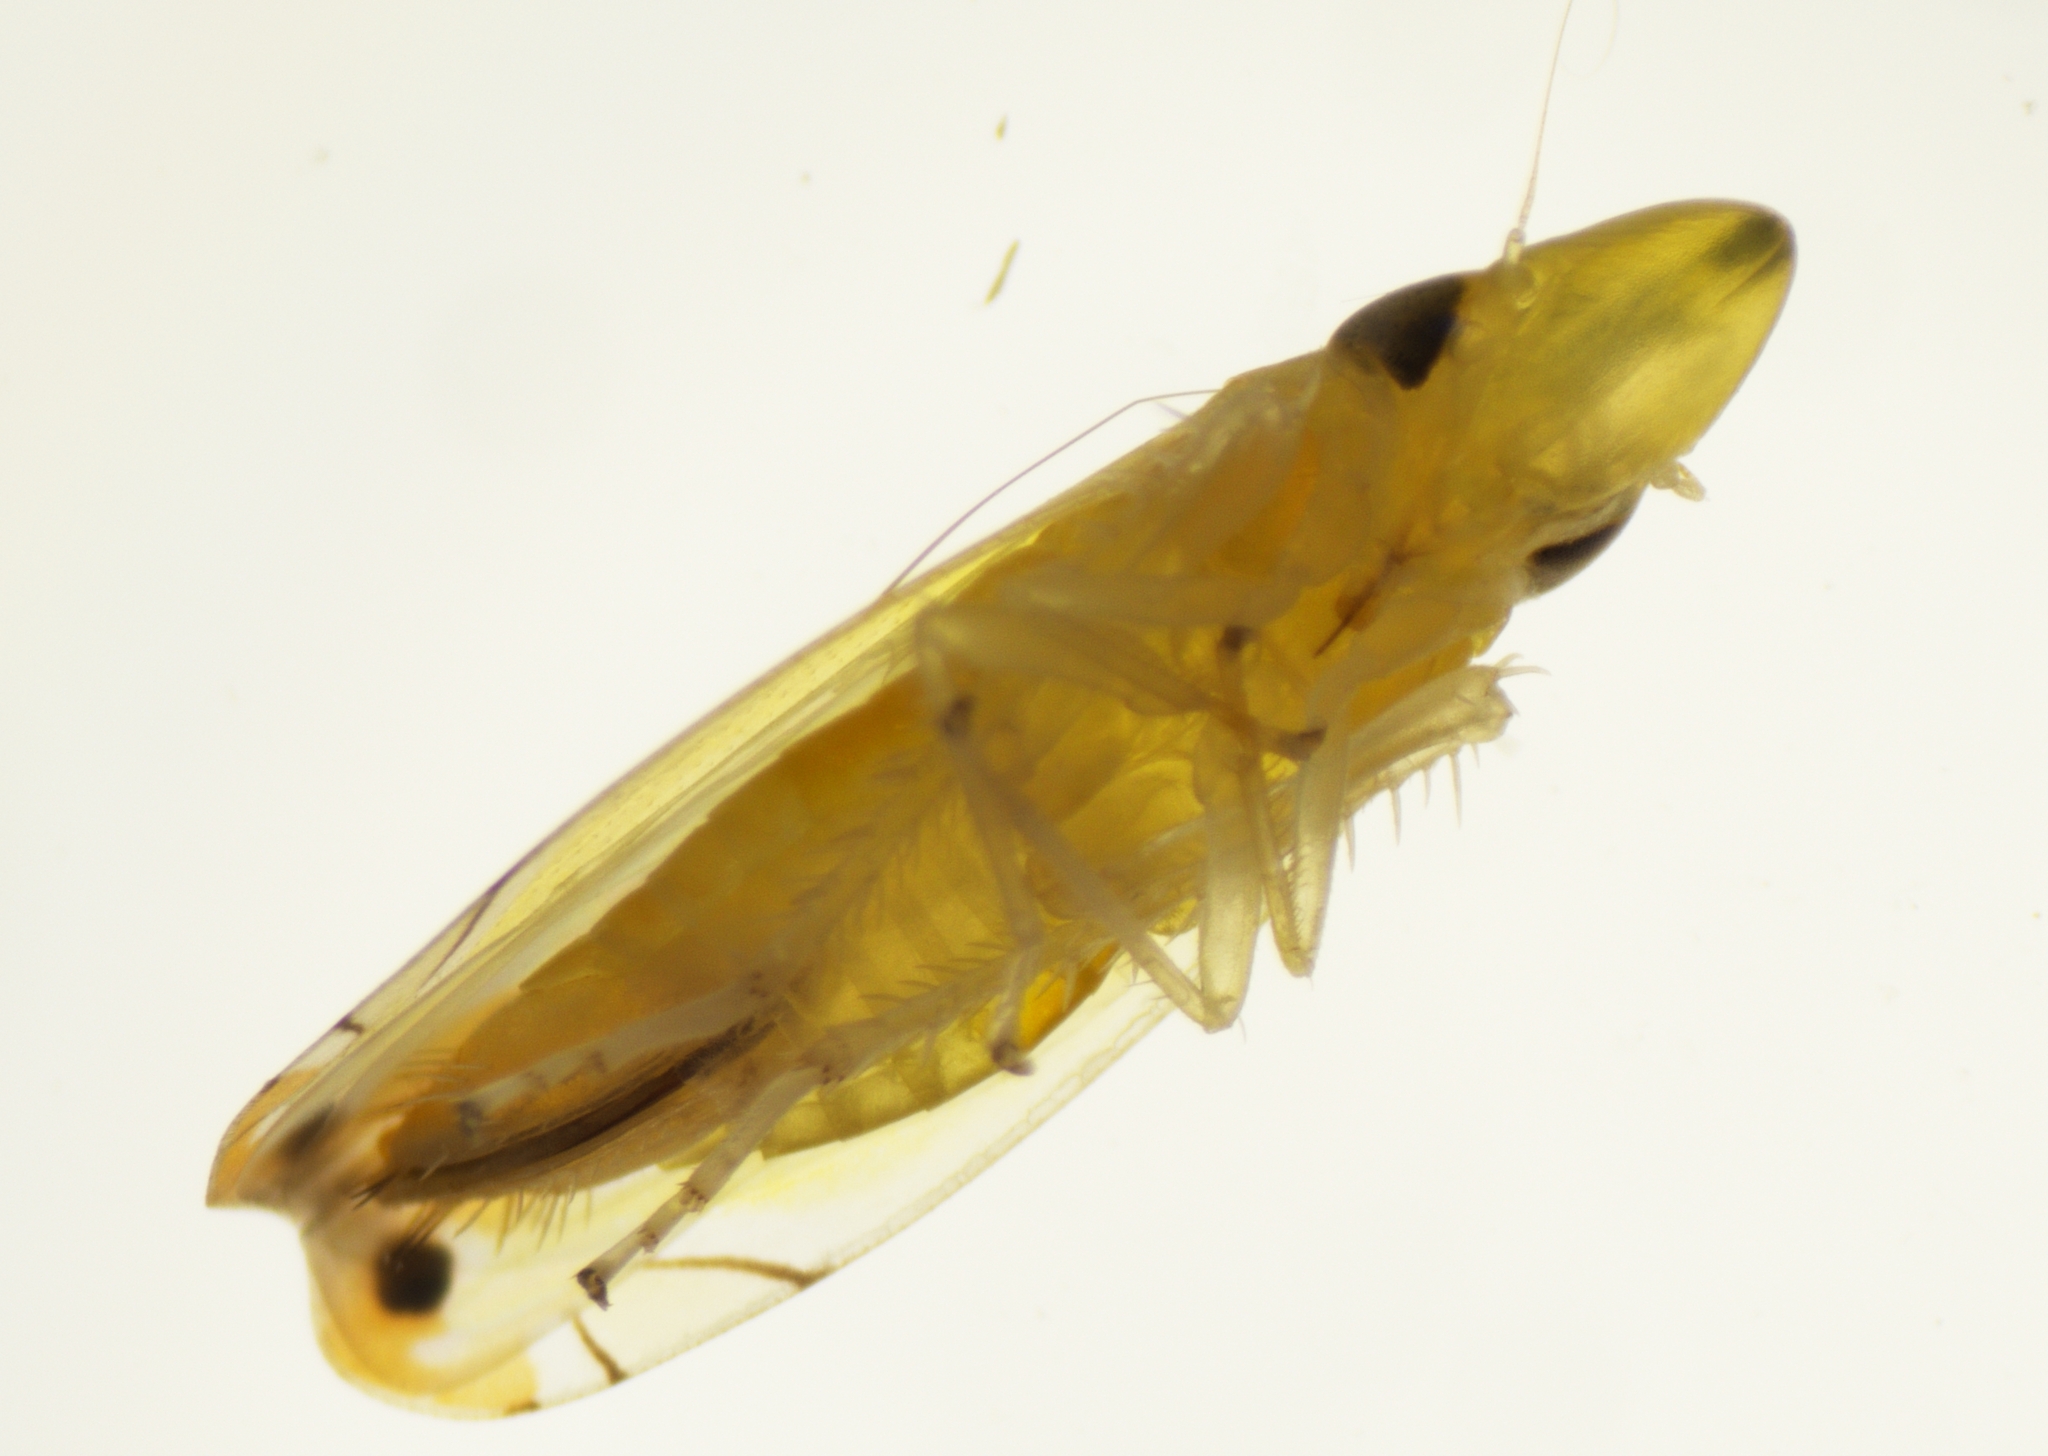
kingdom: Animalia
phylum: Arthropoda
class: Insecta
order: Hemiptera
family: Cicadellidae
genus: Sophonia
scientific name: Sophonia orientalis
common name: Two-spotted leafhopper
